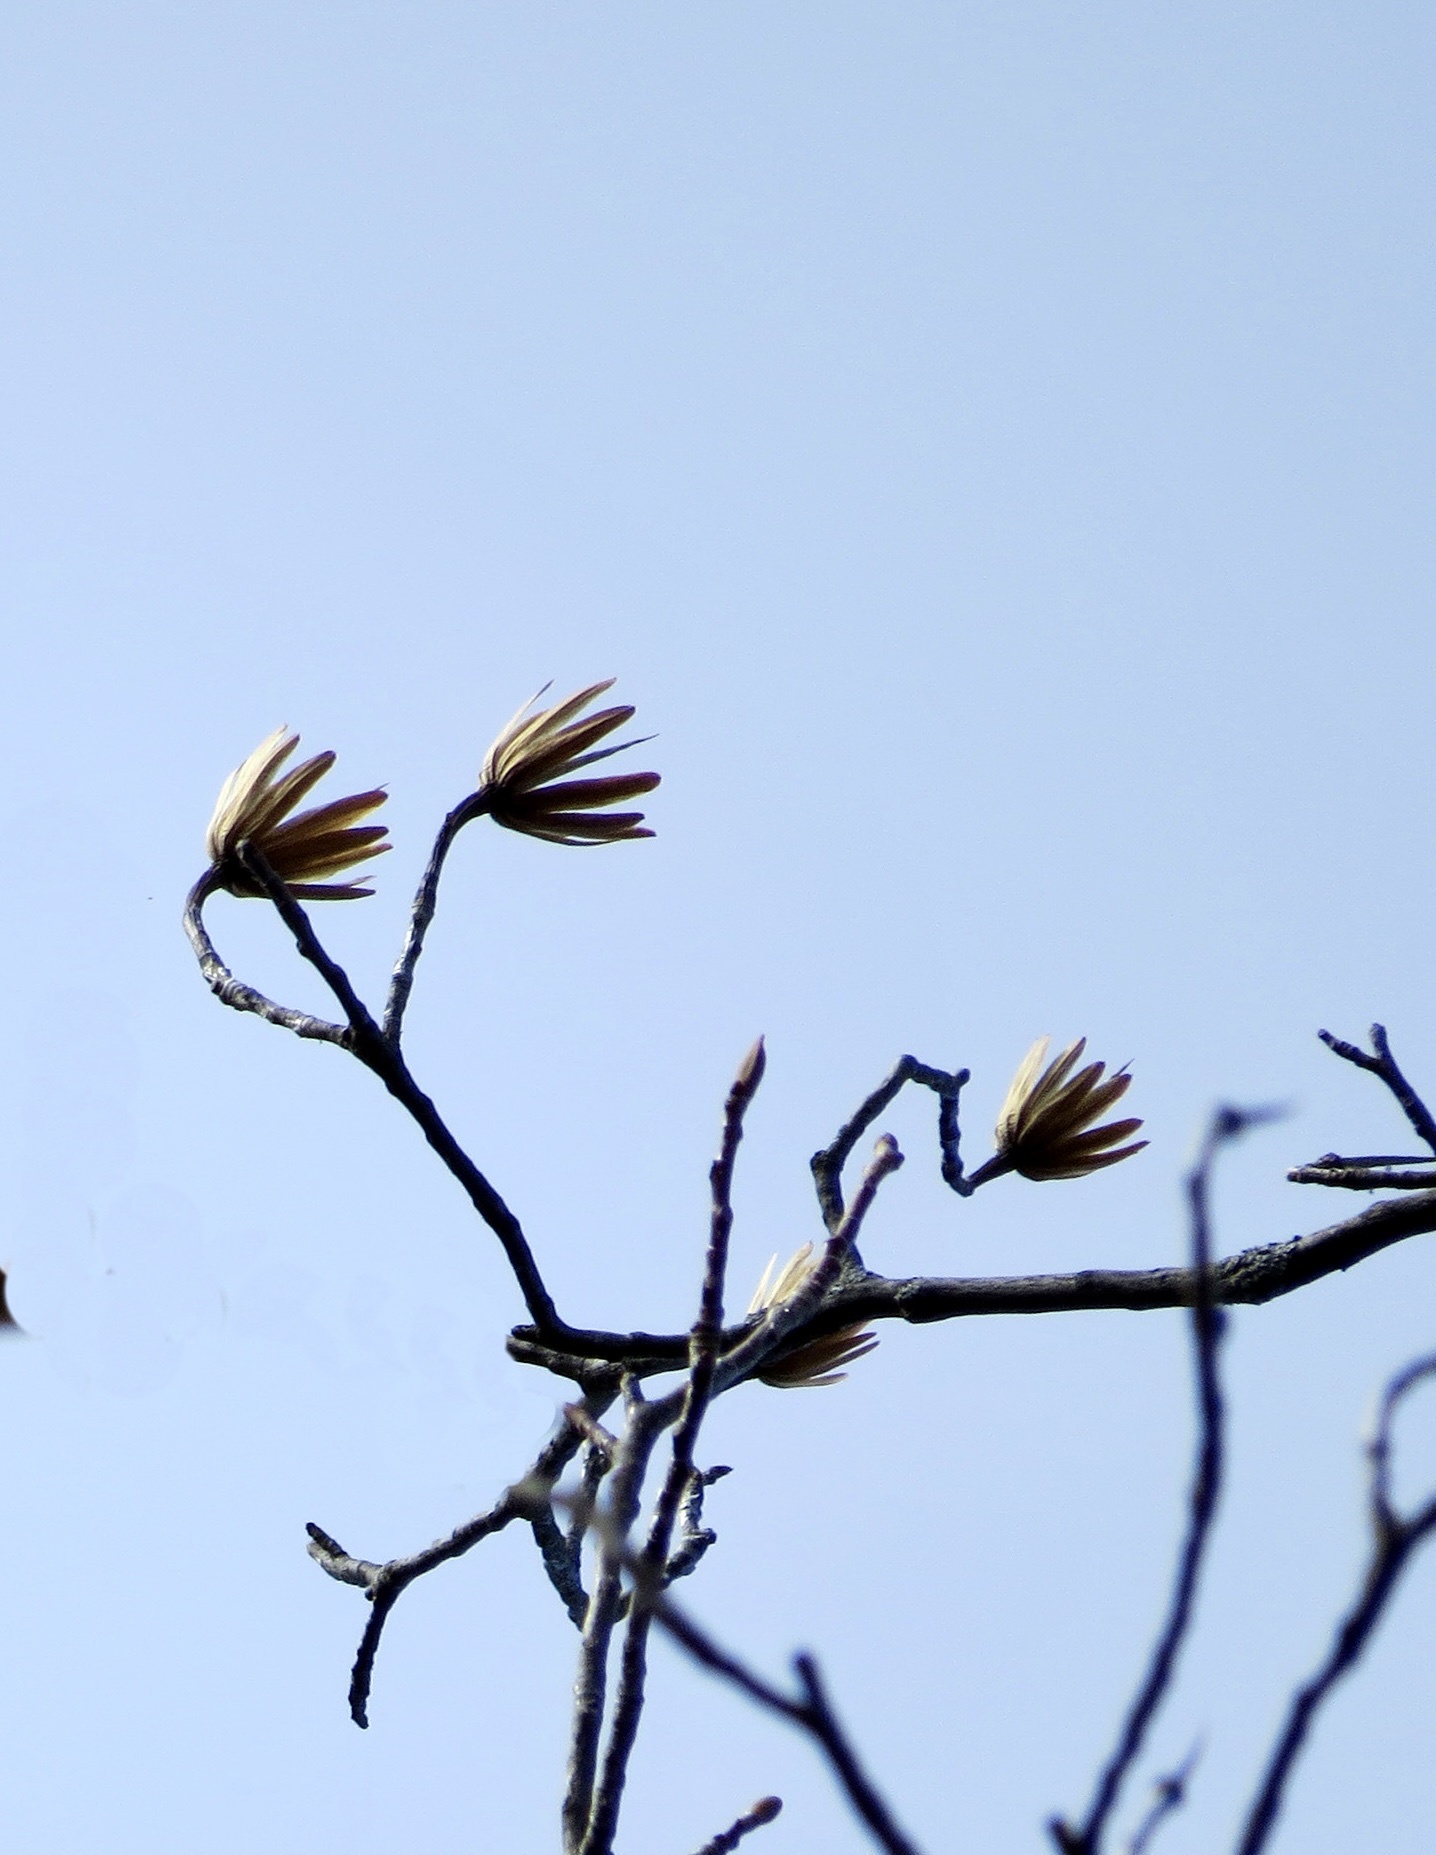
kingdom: Plantae
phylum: Tracheophyta
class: Magnoliopsida
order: Magnoliales
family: Magnoliaceae
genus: Liriodendron
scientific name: Liriodendron tulipifera
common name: Tulip tree
